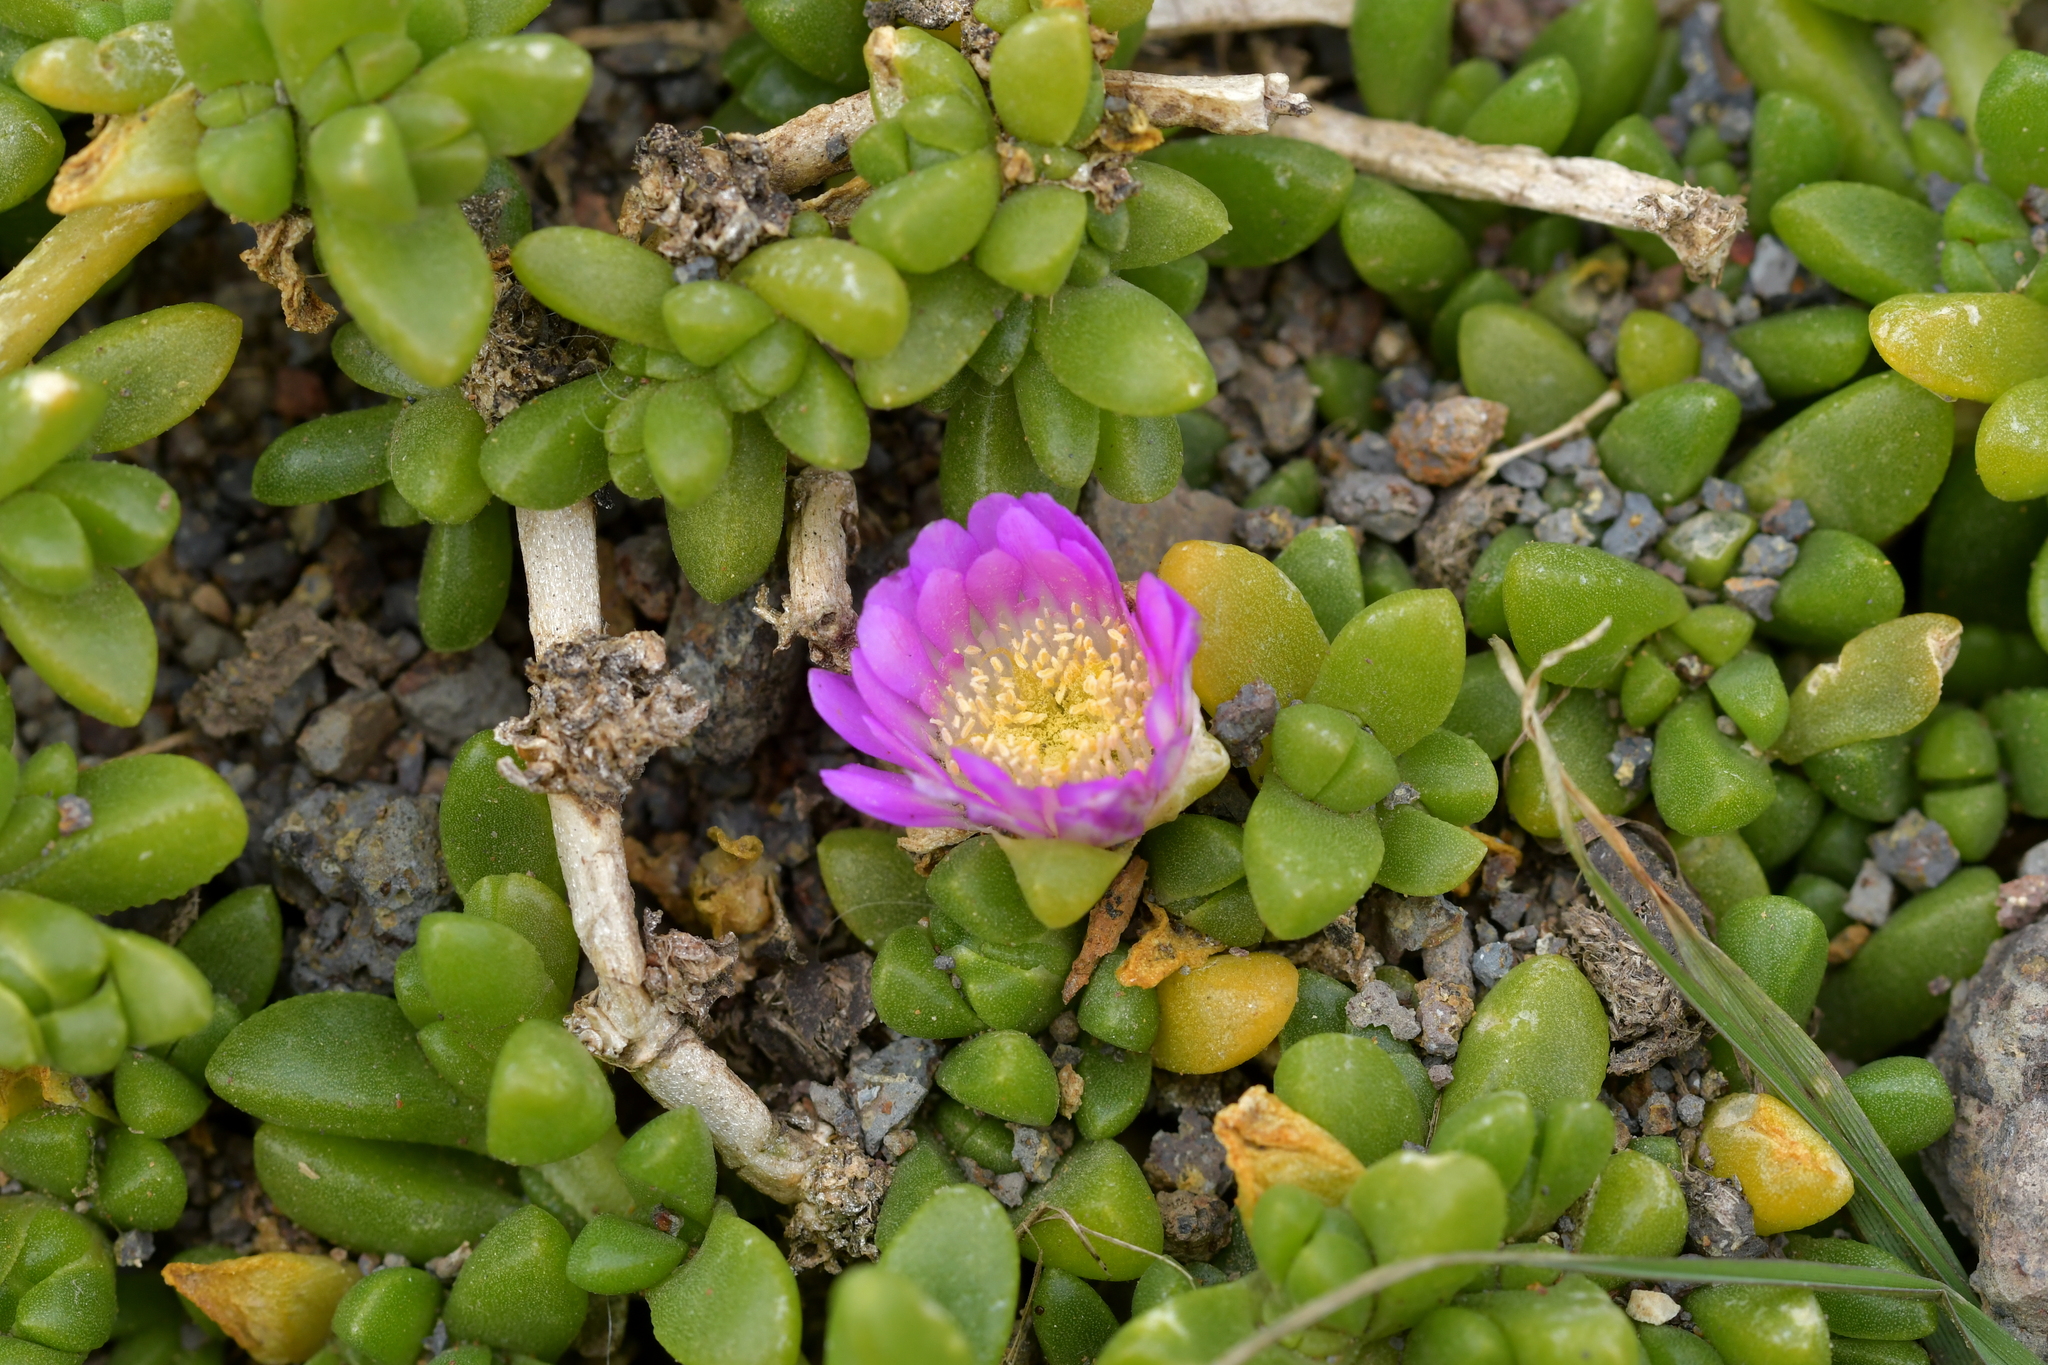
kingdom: Plantae
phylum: Tracheophyta
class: Magnoliopsida
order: Caryophyllales
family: Aizoaceae
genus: Disphyma
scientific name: Disphyma papillatum
